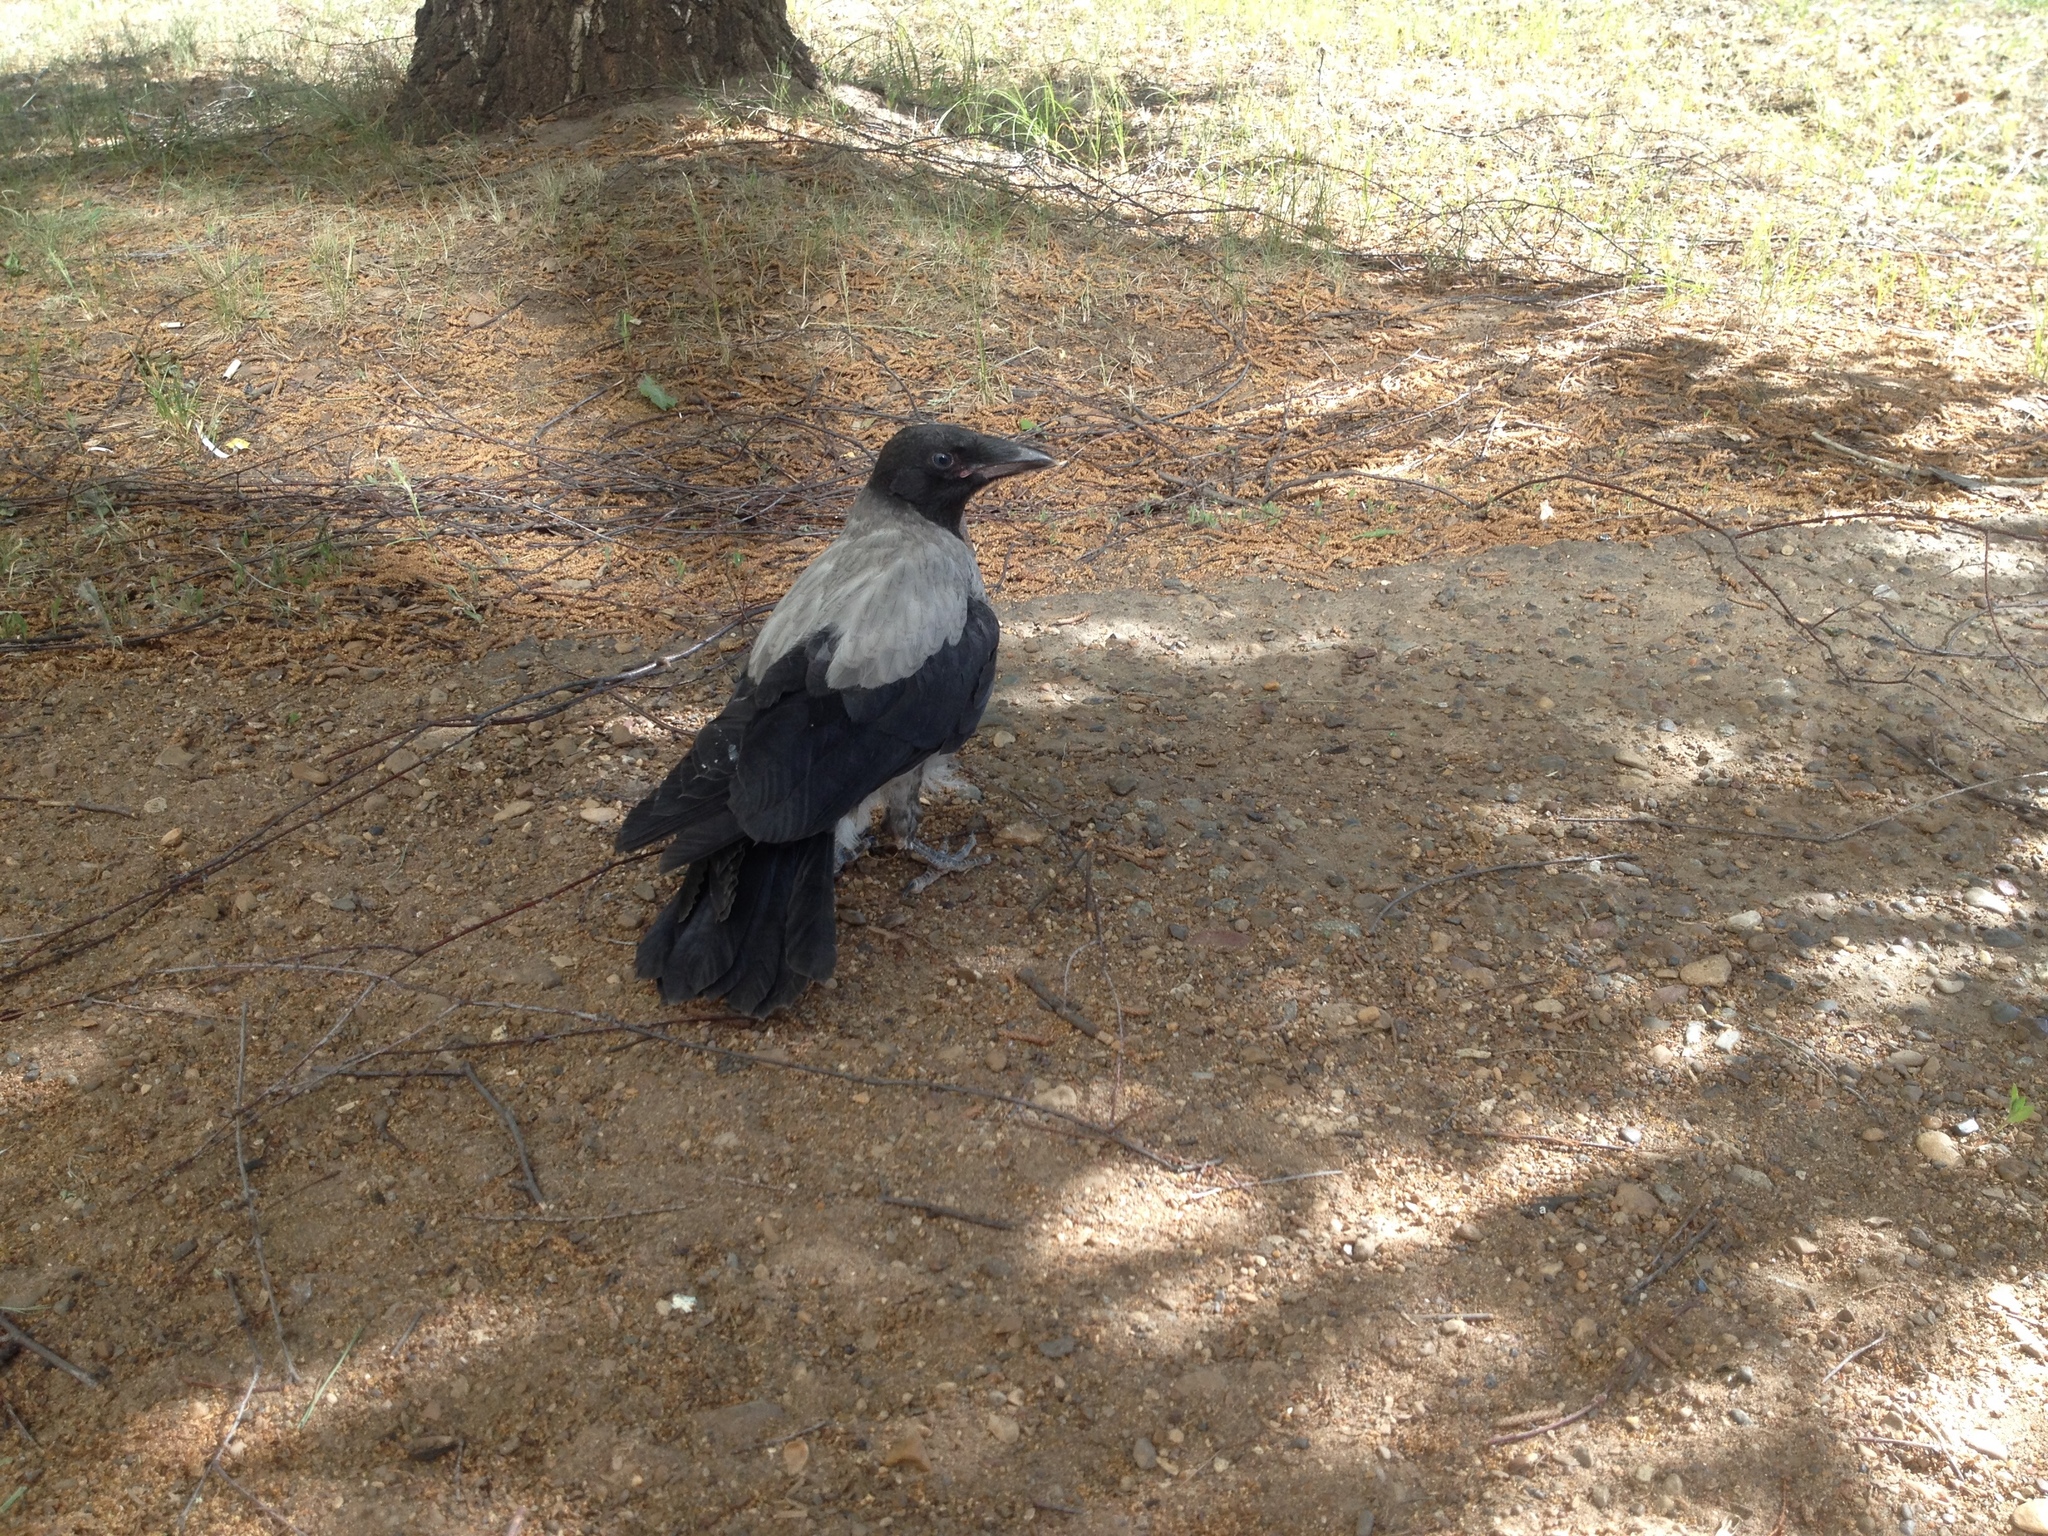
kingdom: Animalia
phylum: Chordata
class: Aves
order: Passeriformes
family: Corvidae
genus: Corvus
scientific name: Corvus cornix
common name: Hooded crow
